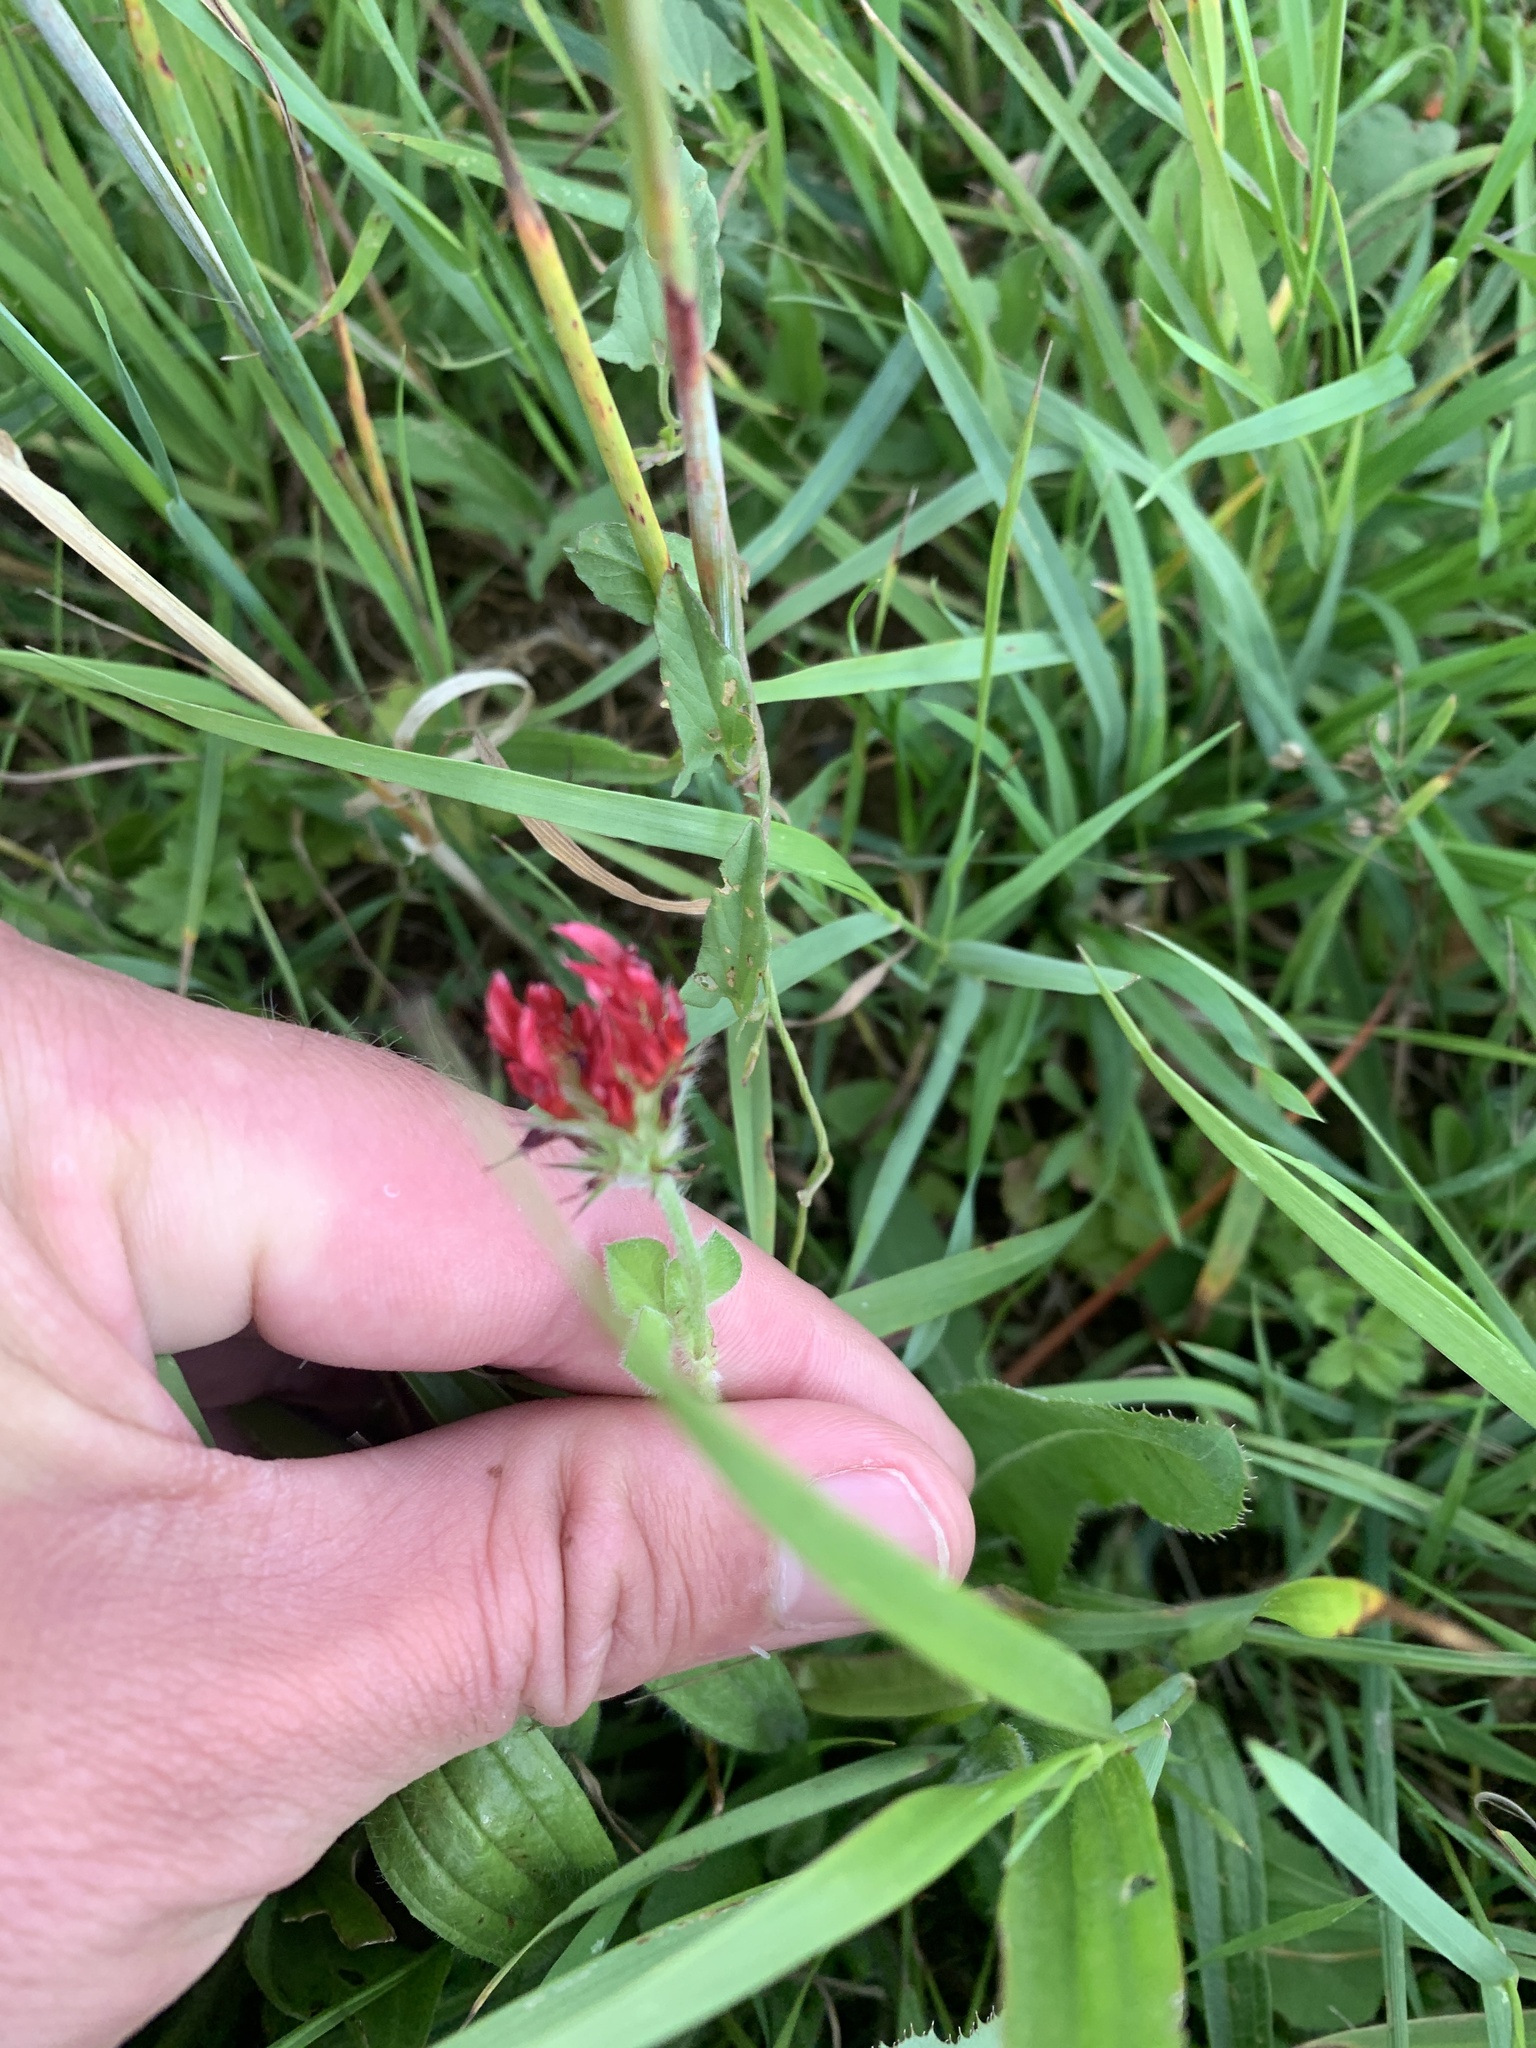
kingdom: Plantae
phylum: Tracheophyta
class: Magnoliopsida
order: Fabales
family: Fabaceae
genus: Trifolium
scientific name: Trifolium incarnatum
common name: Crimson clover
